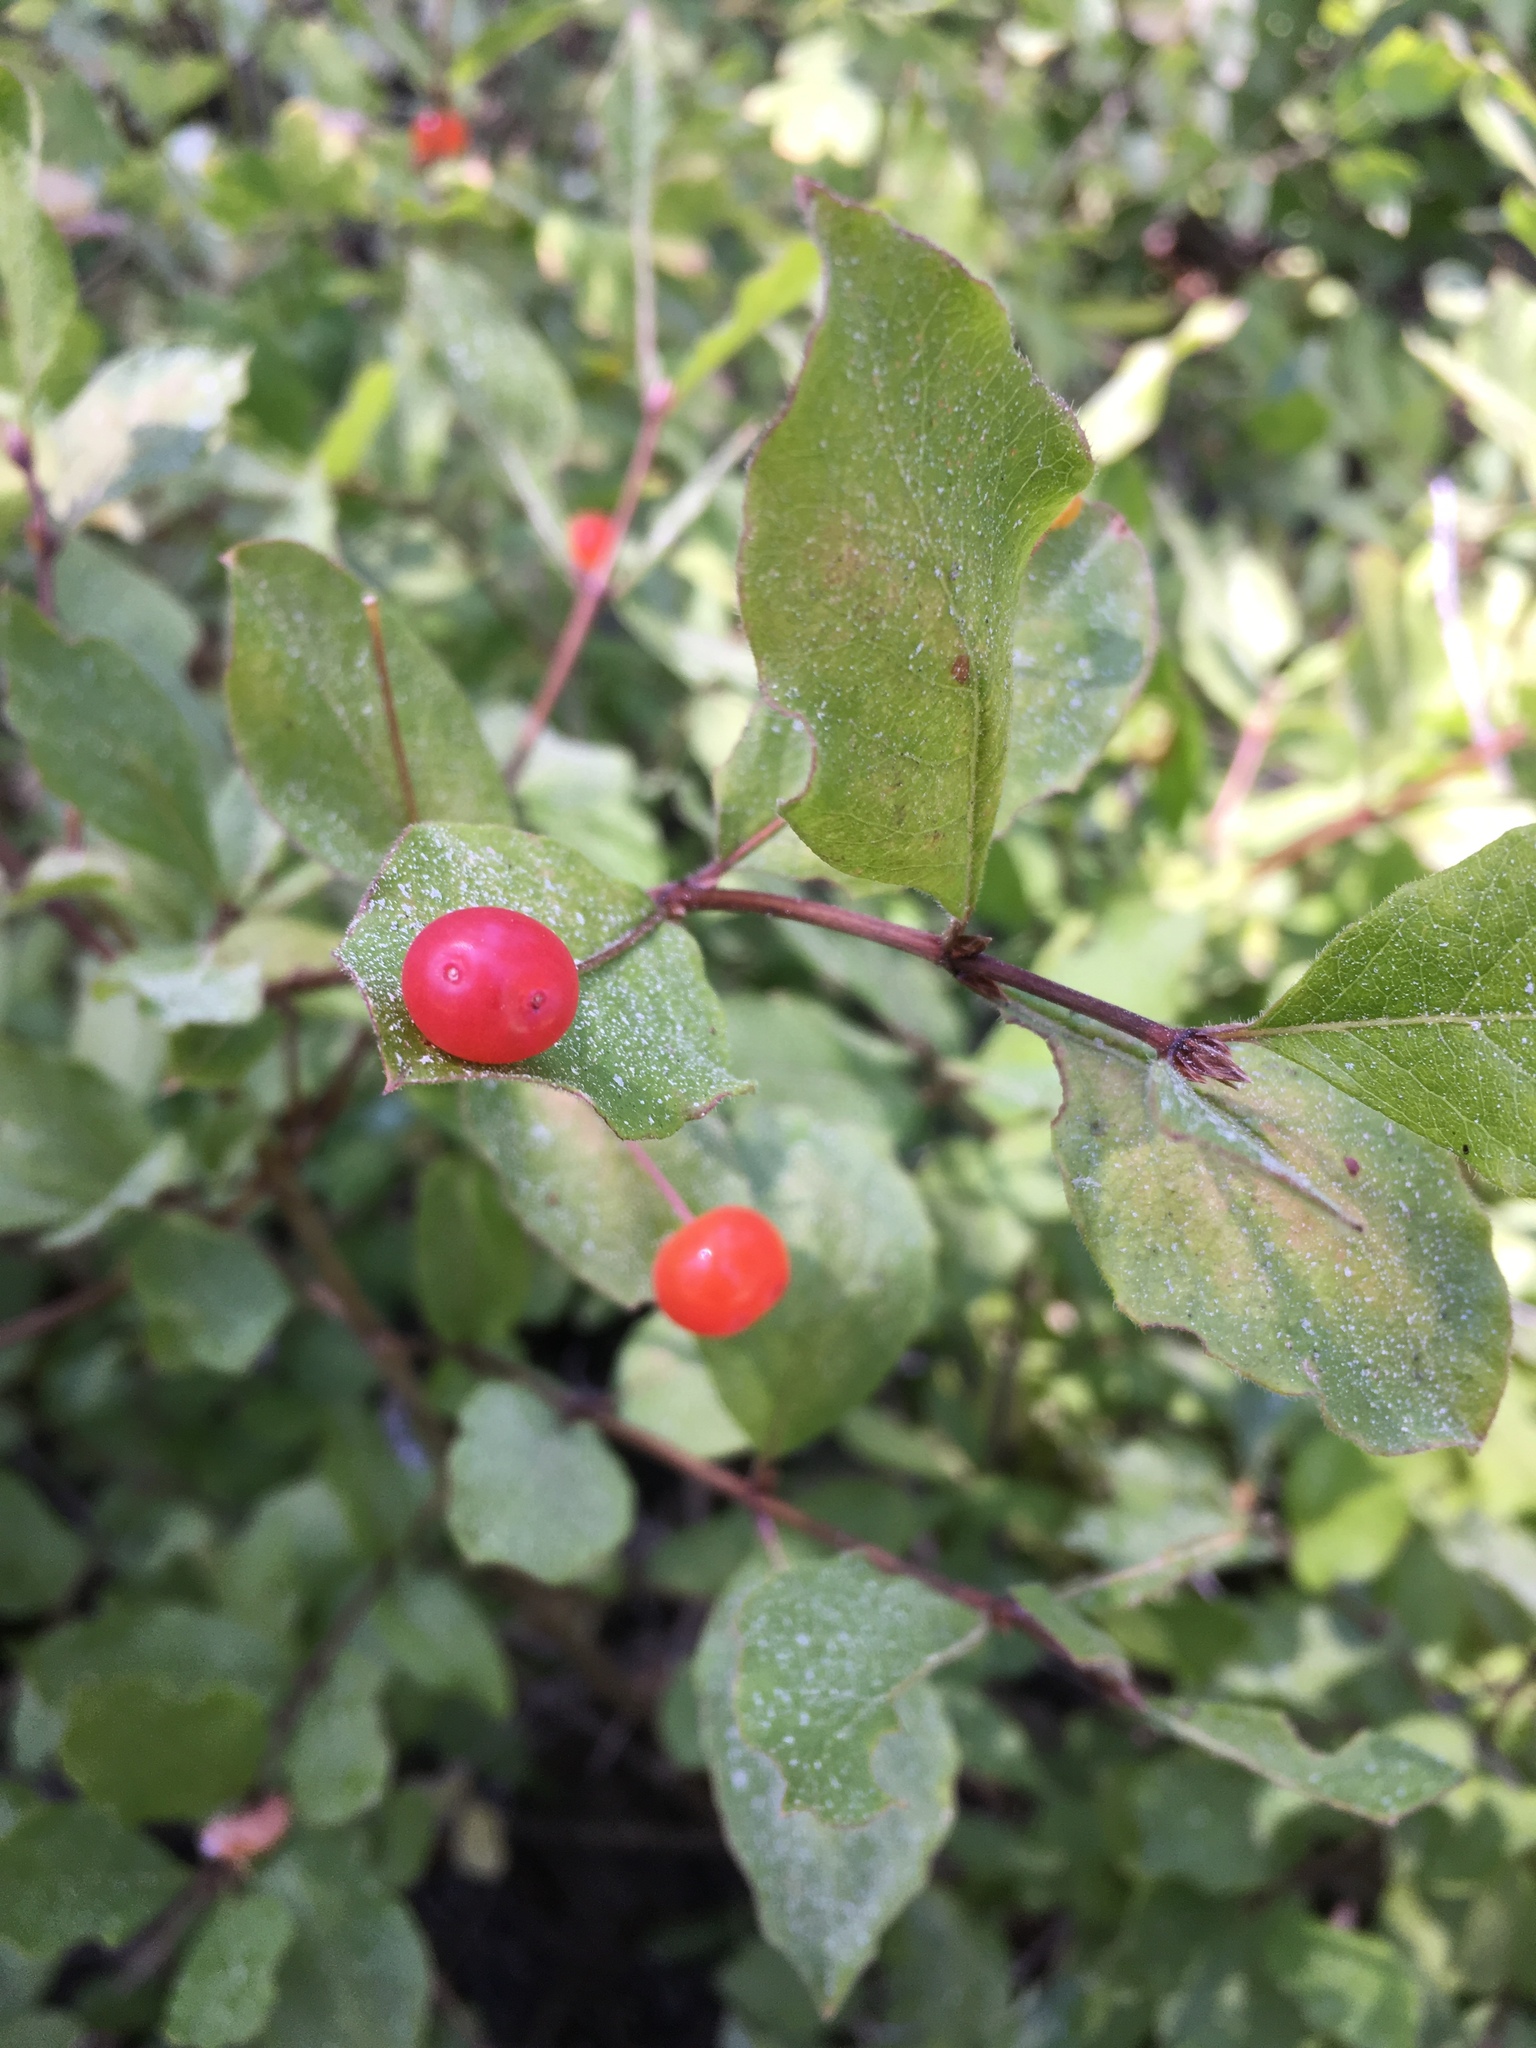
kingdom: Plantae
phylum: Tracheophyta
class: Magnoliopsida
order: Dipsacales
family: Caprifoliaceae
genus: Lonicera
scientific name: Lonicera conjugialis
